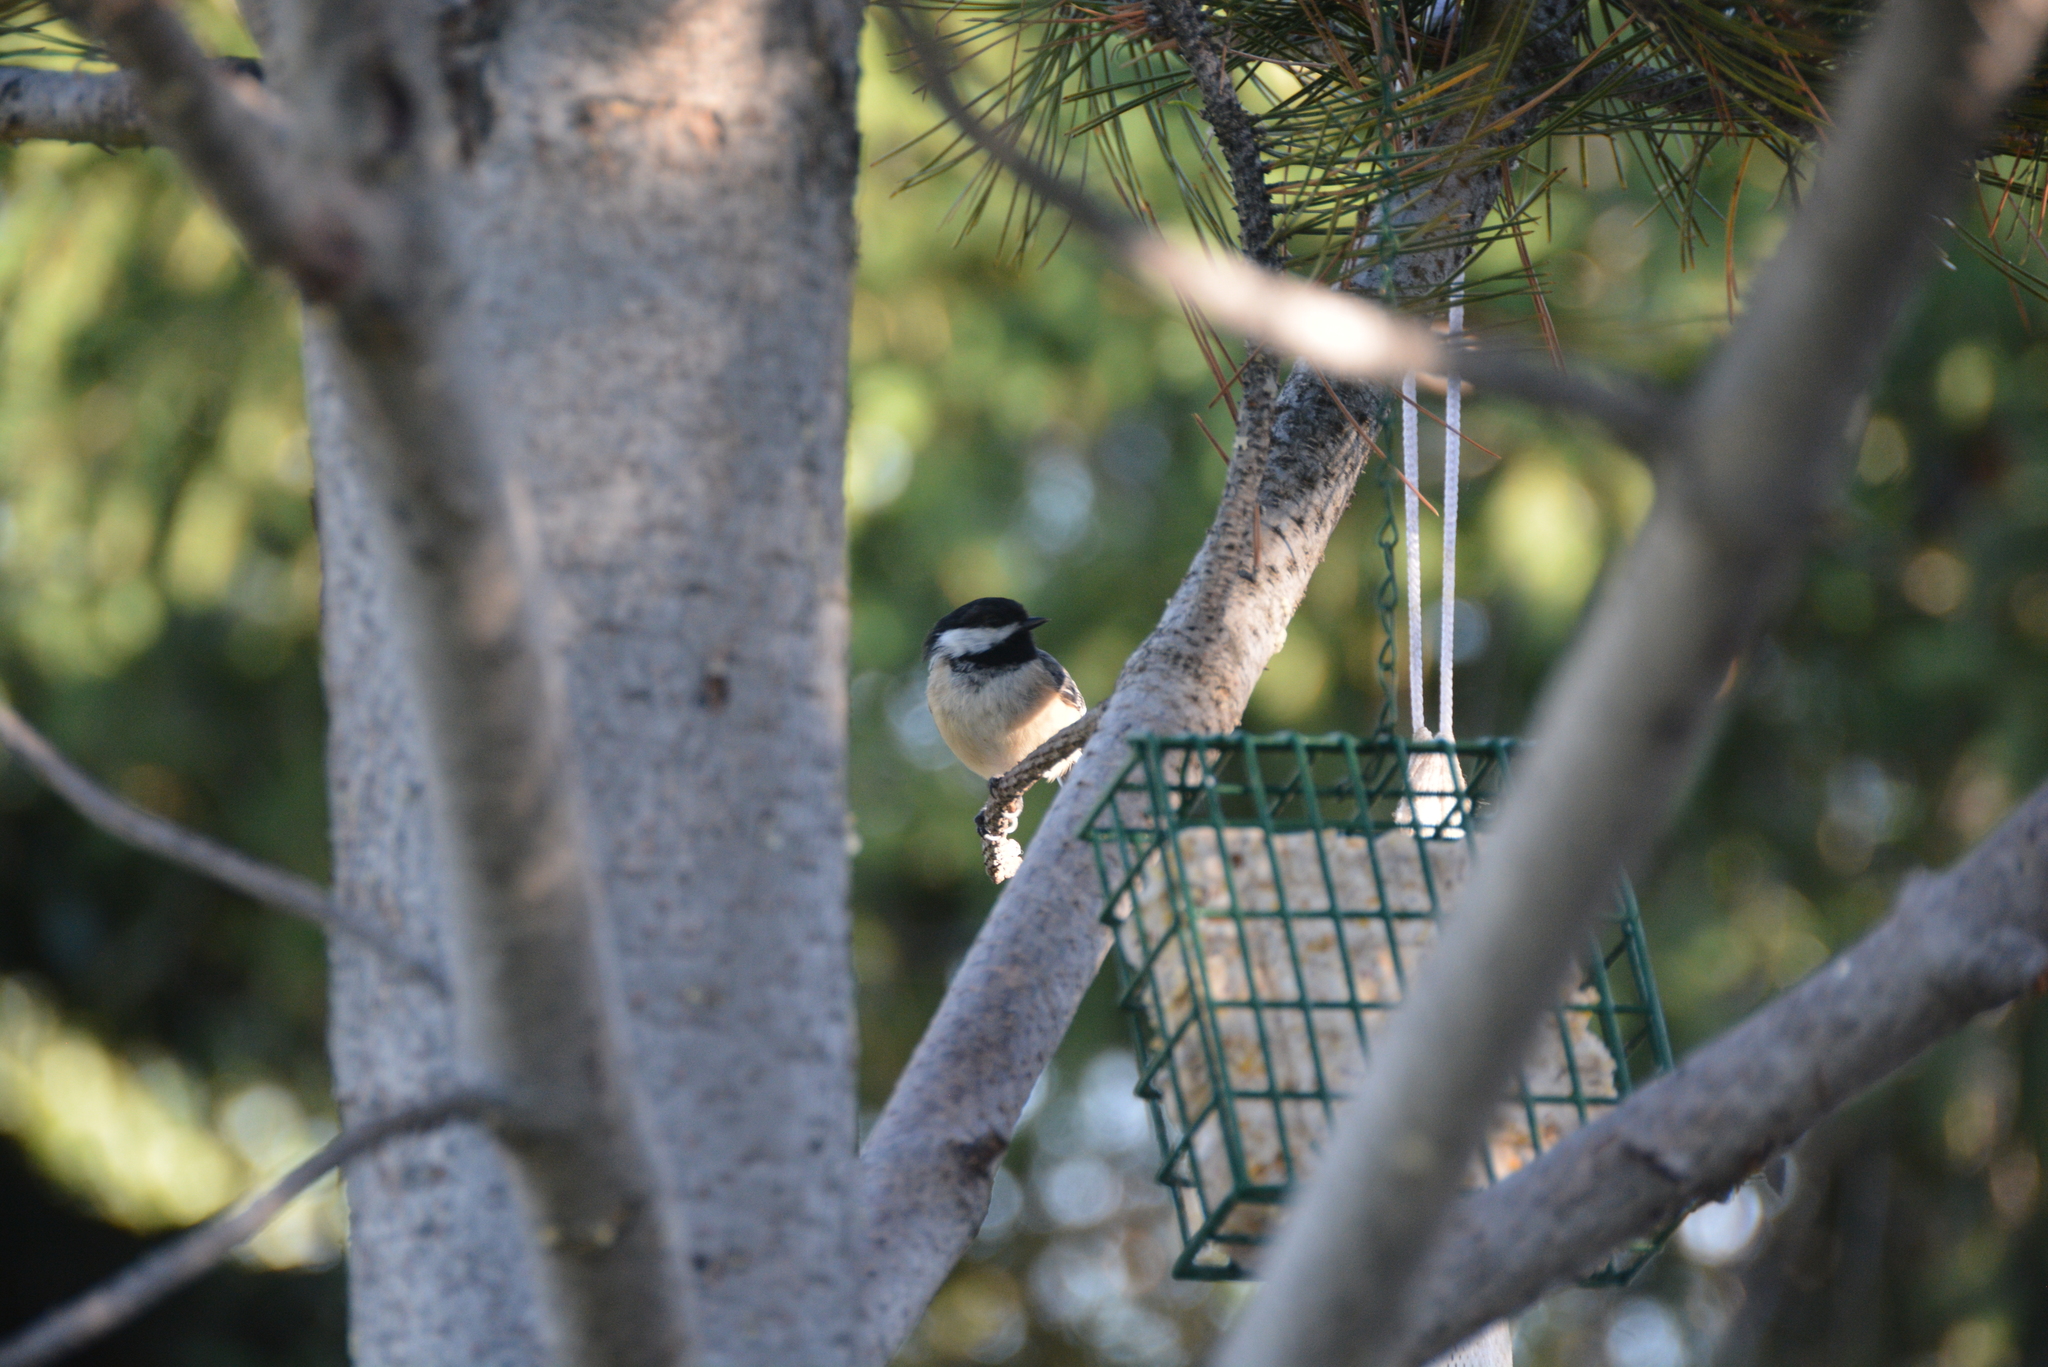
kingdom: Animalia
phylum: Chordata
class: Aves
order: Passeriformes
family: Paridae
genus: Poecile
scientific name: Poecile atricapillus
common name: Black-capped chickadee
